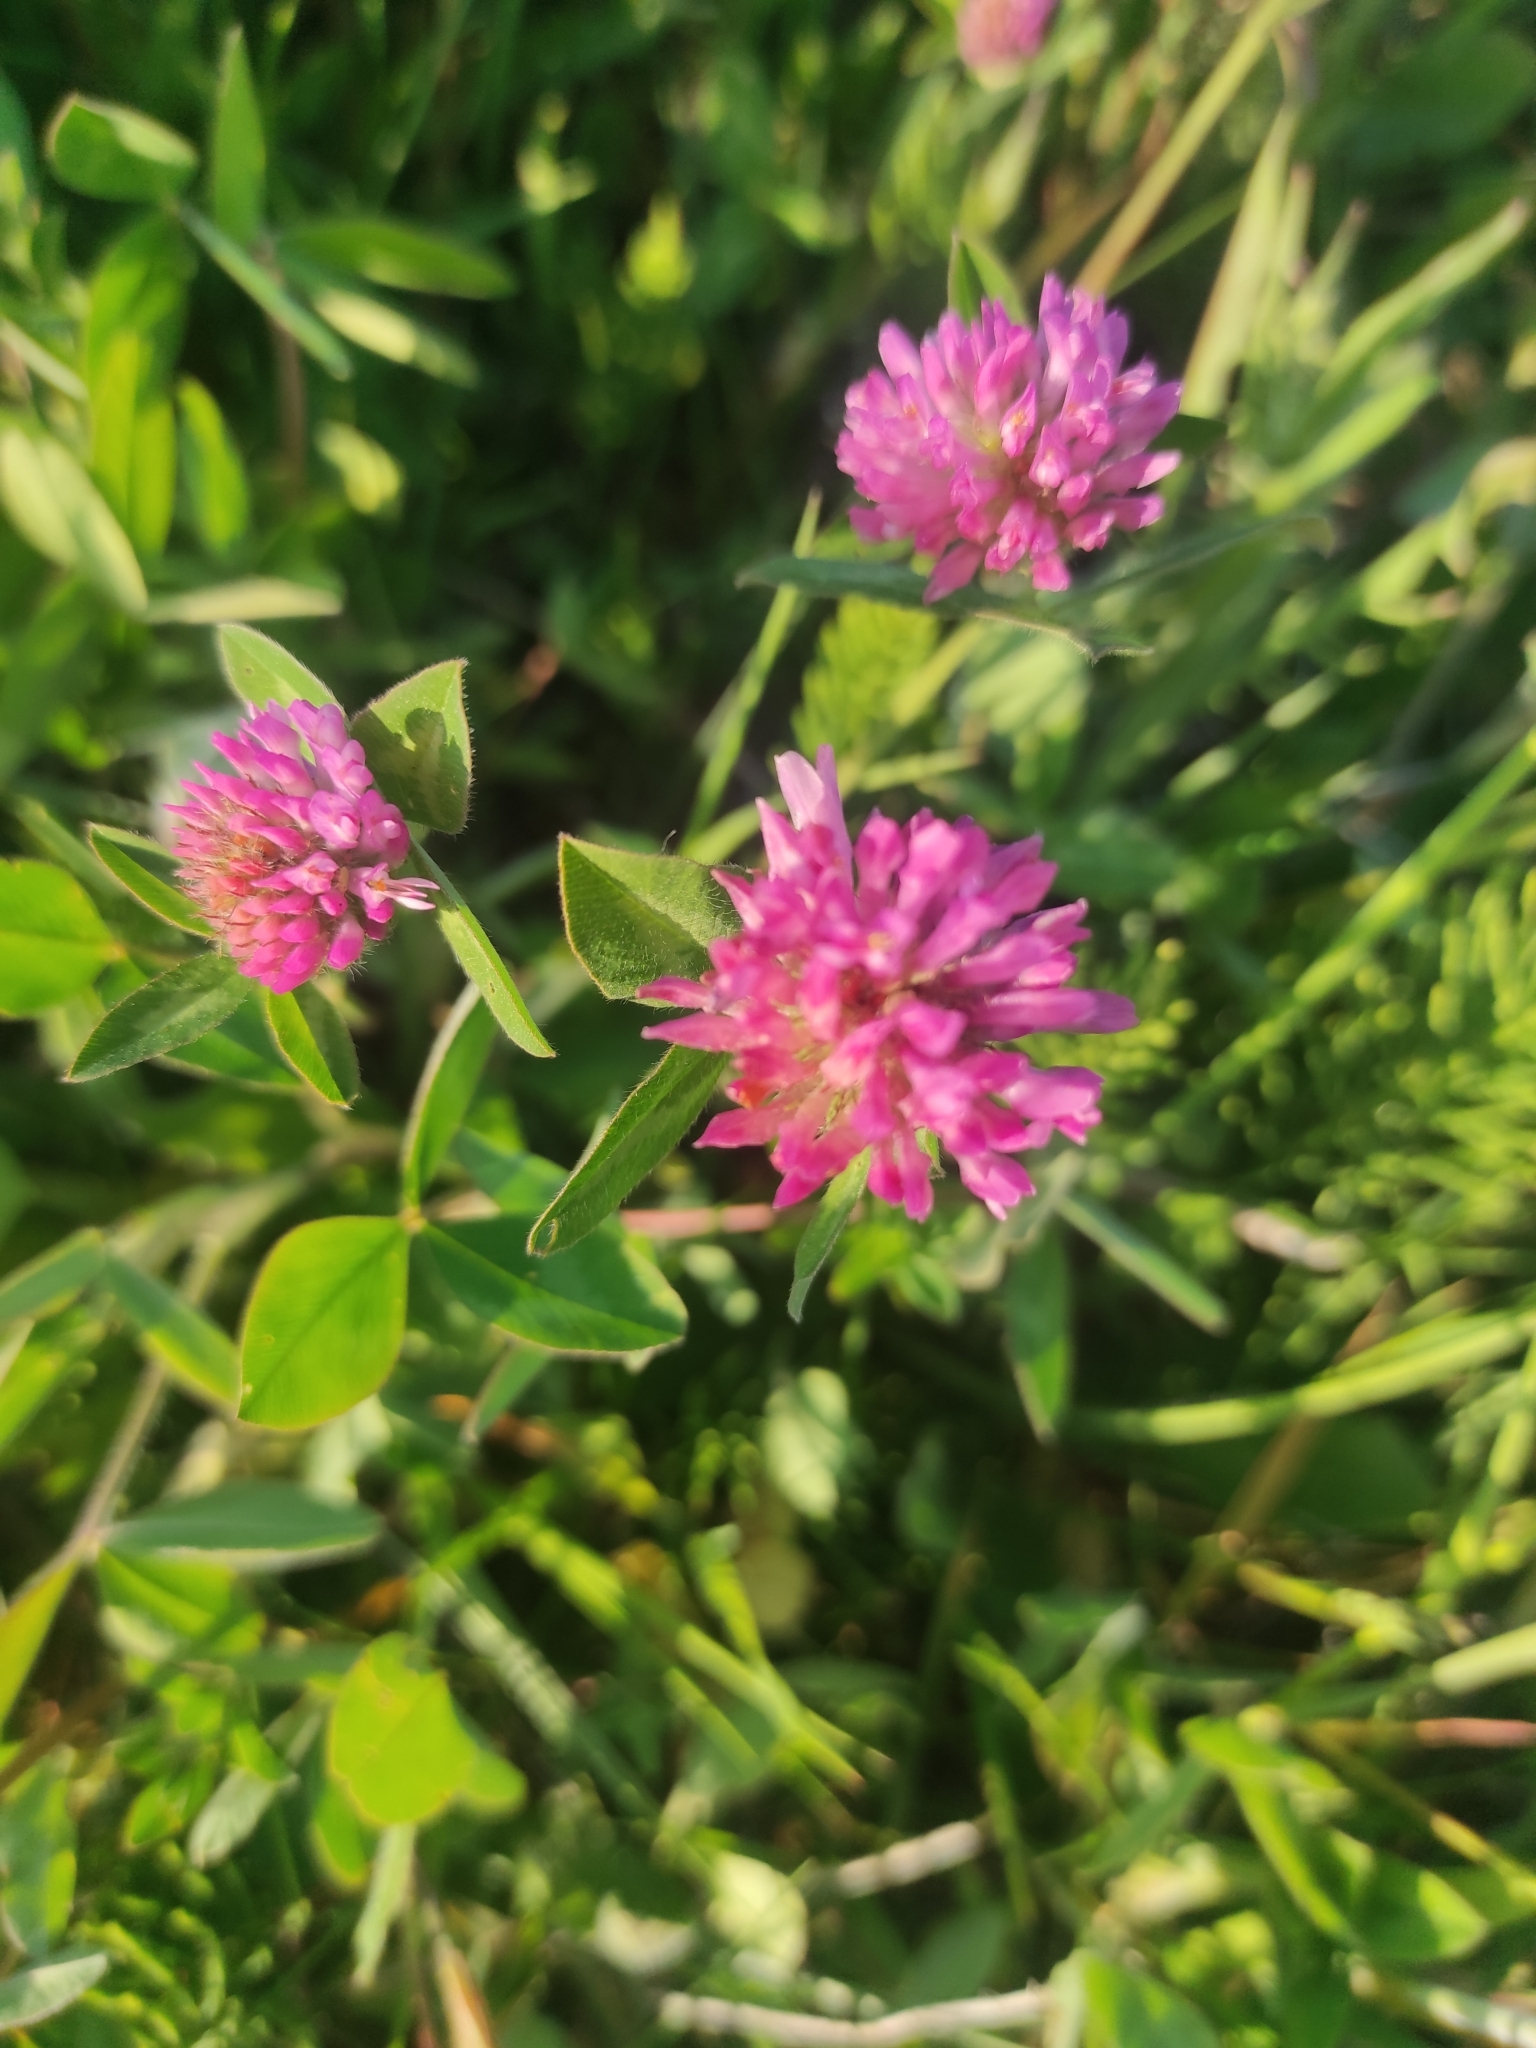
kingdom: Plantae
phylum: Tracheophyta
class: Magnoliopsida
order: Fabales
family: Fabaceae
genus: Trifolium
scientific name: Trifolium pratense
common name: Red clover
